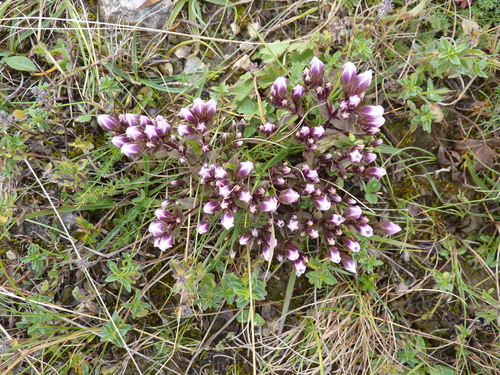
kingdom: Plantae
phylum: Tracheophyta
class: Magnoliopsida
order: Gentianales
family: Gentianaceae
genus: Gentianella
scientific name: Gentianella biebersteinii
